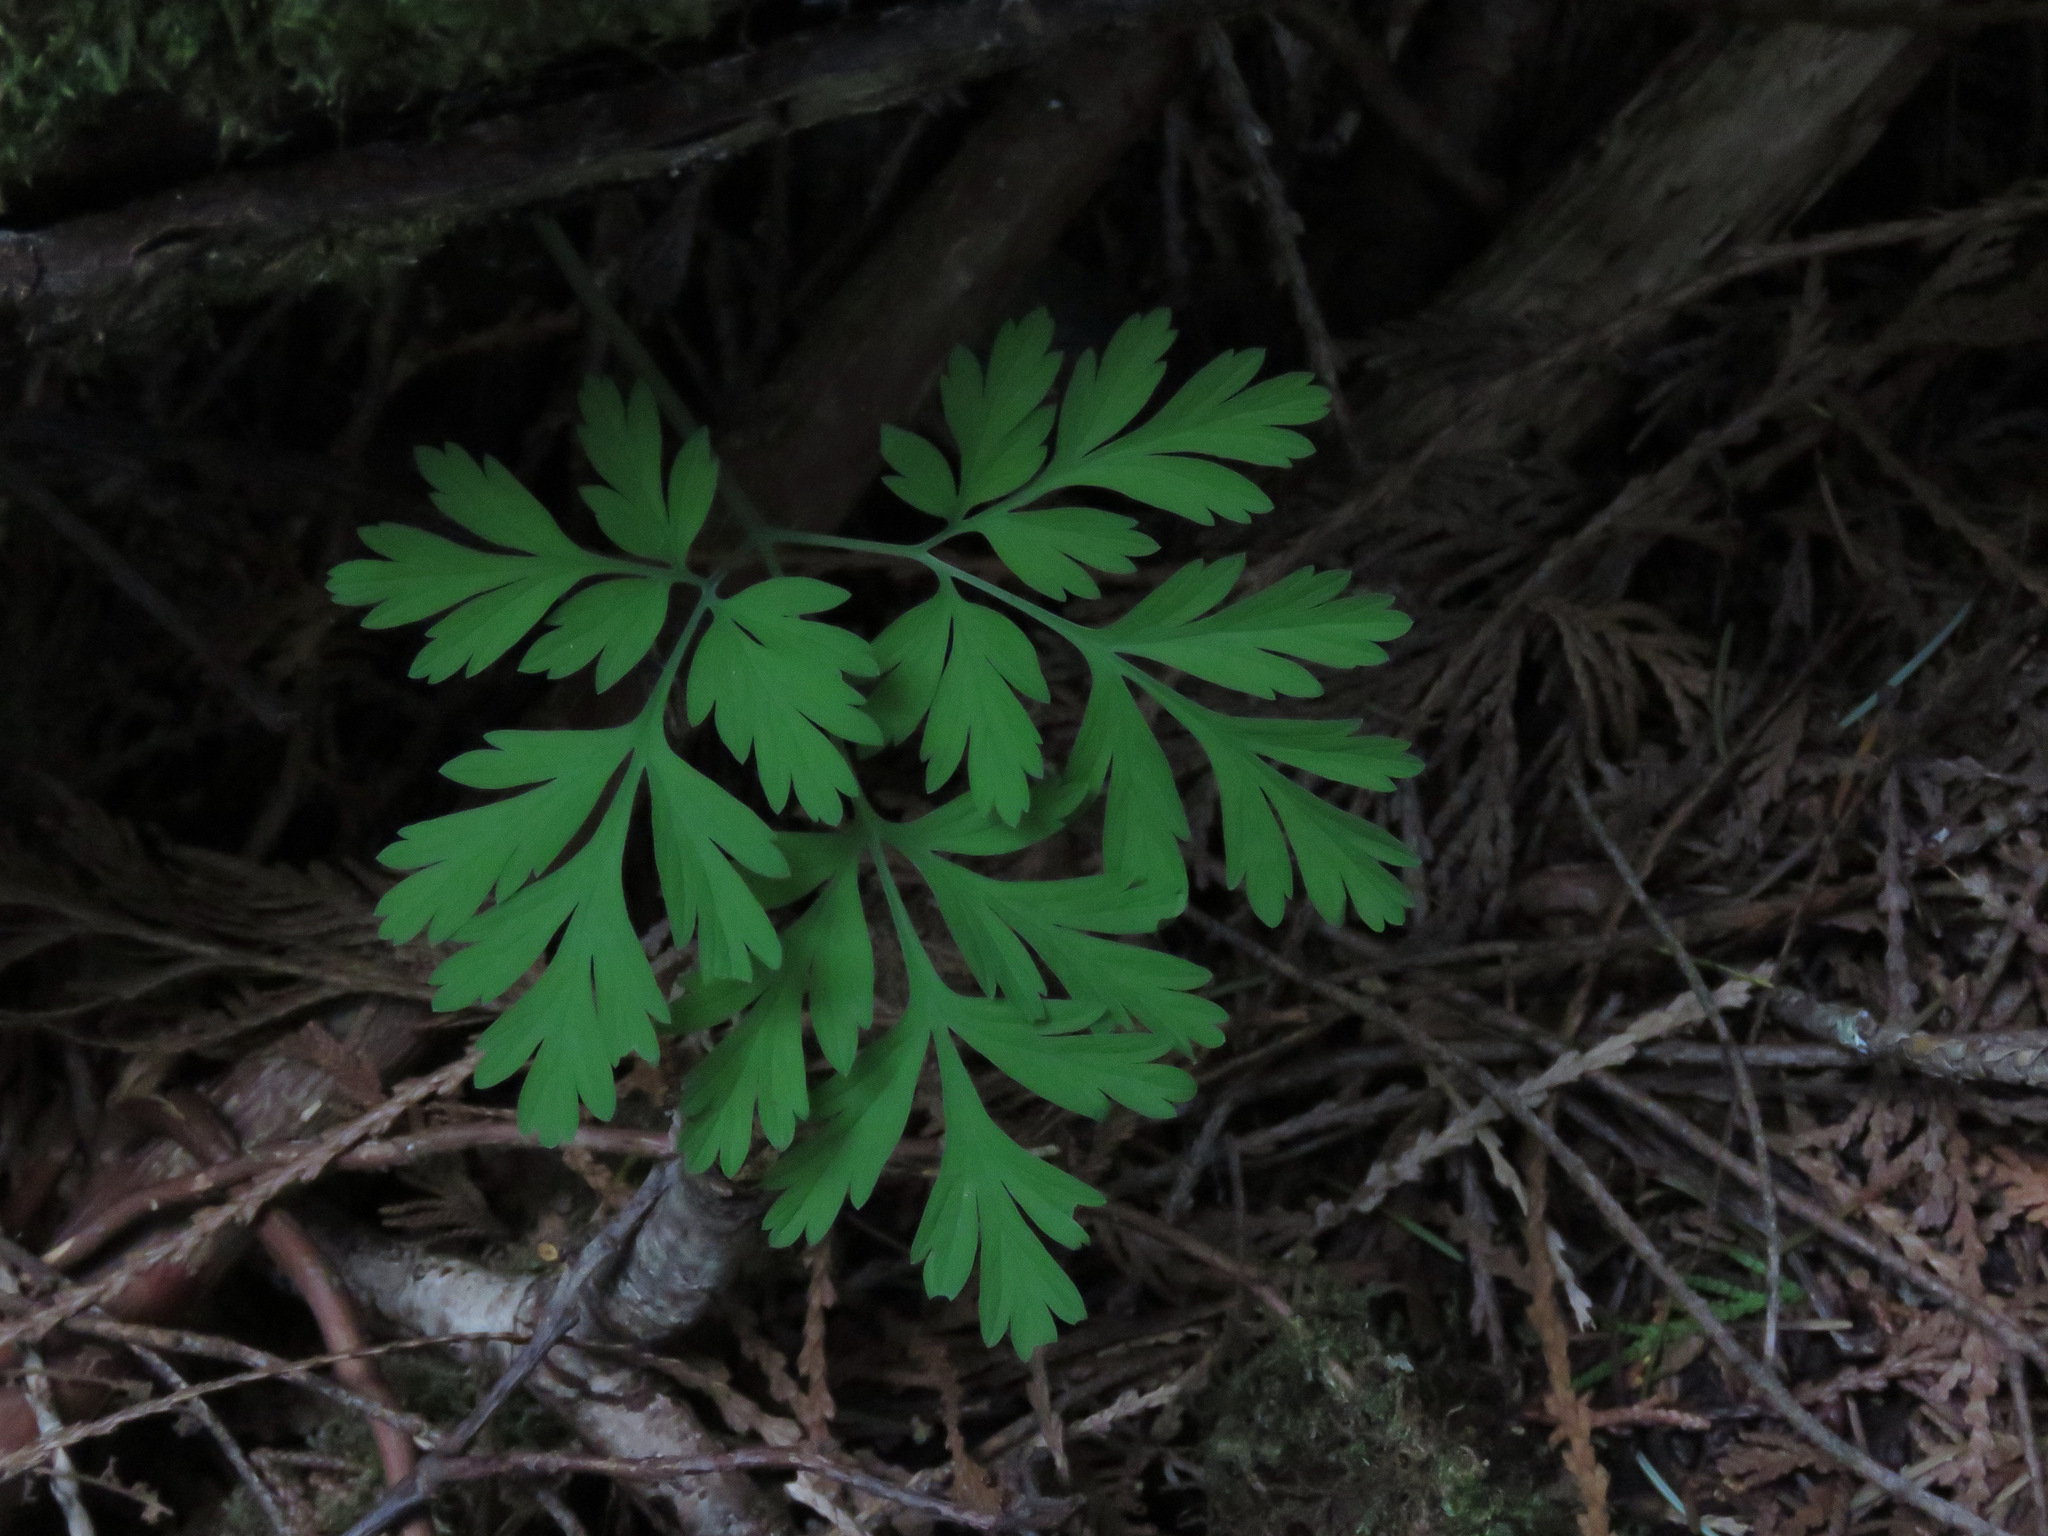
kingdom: Plantae
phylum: Tracheophyta
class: Magnoliopsida
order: Ranunculales
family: Papaveraceae
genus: Dicentra
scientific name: Dicentra formosa
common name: Bleeding-heart
